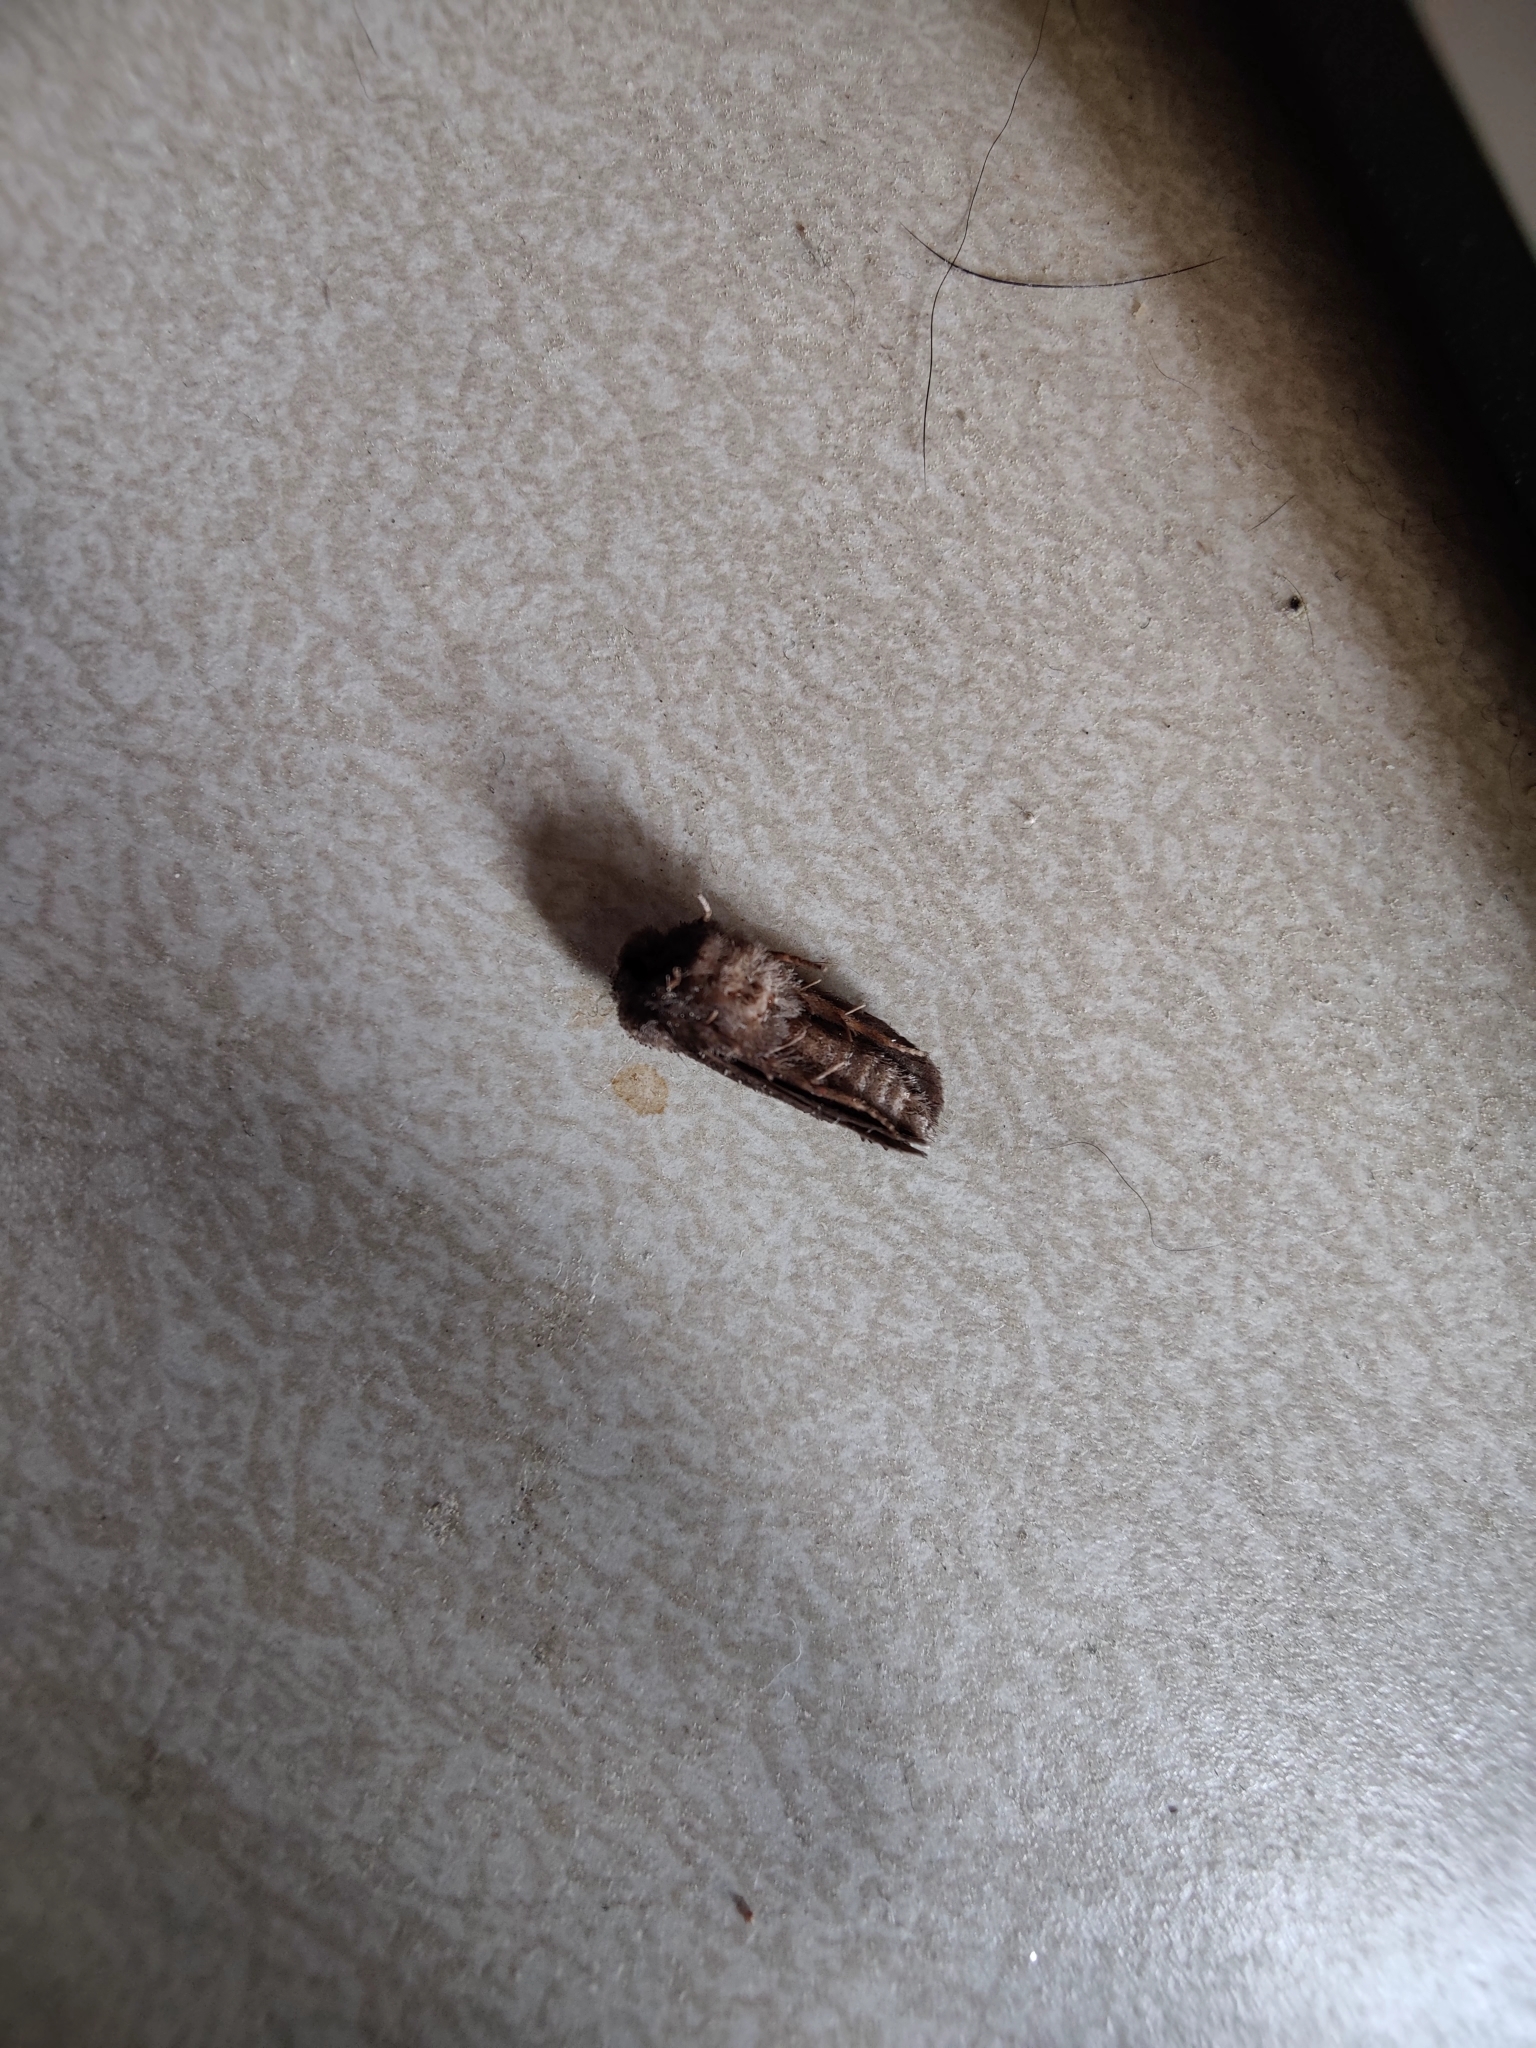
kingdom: Animalia
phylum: Arthropoda
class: Insecta
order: Lepidoptera
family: Tineidae
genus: Acrolophus
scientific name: Acrolophus arcanella
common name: Arcane grass tubeworm moth
